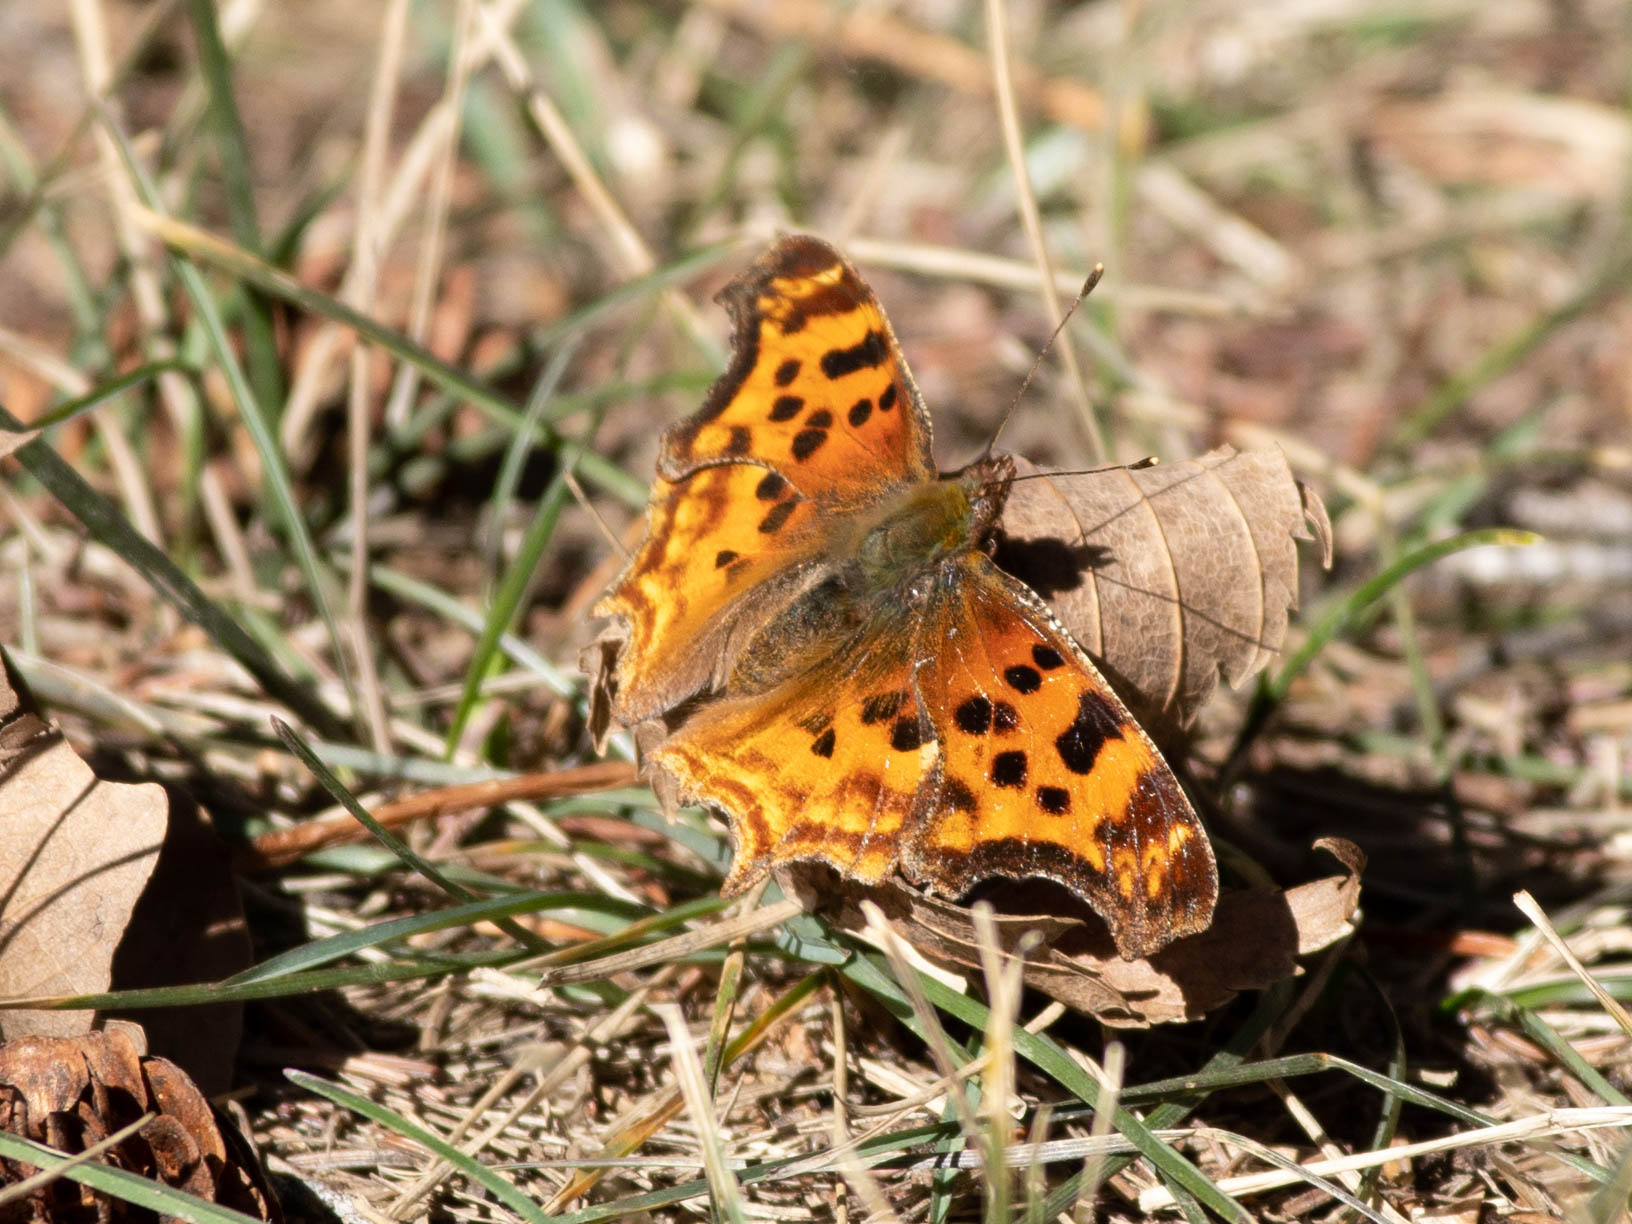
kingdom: Animalia
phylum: Arthropoda
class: Insecta
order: Lepidoptera
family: Nymphalidae
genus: Polygonia
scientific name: Polygonia satyrus
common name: Satyr angle wing
